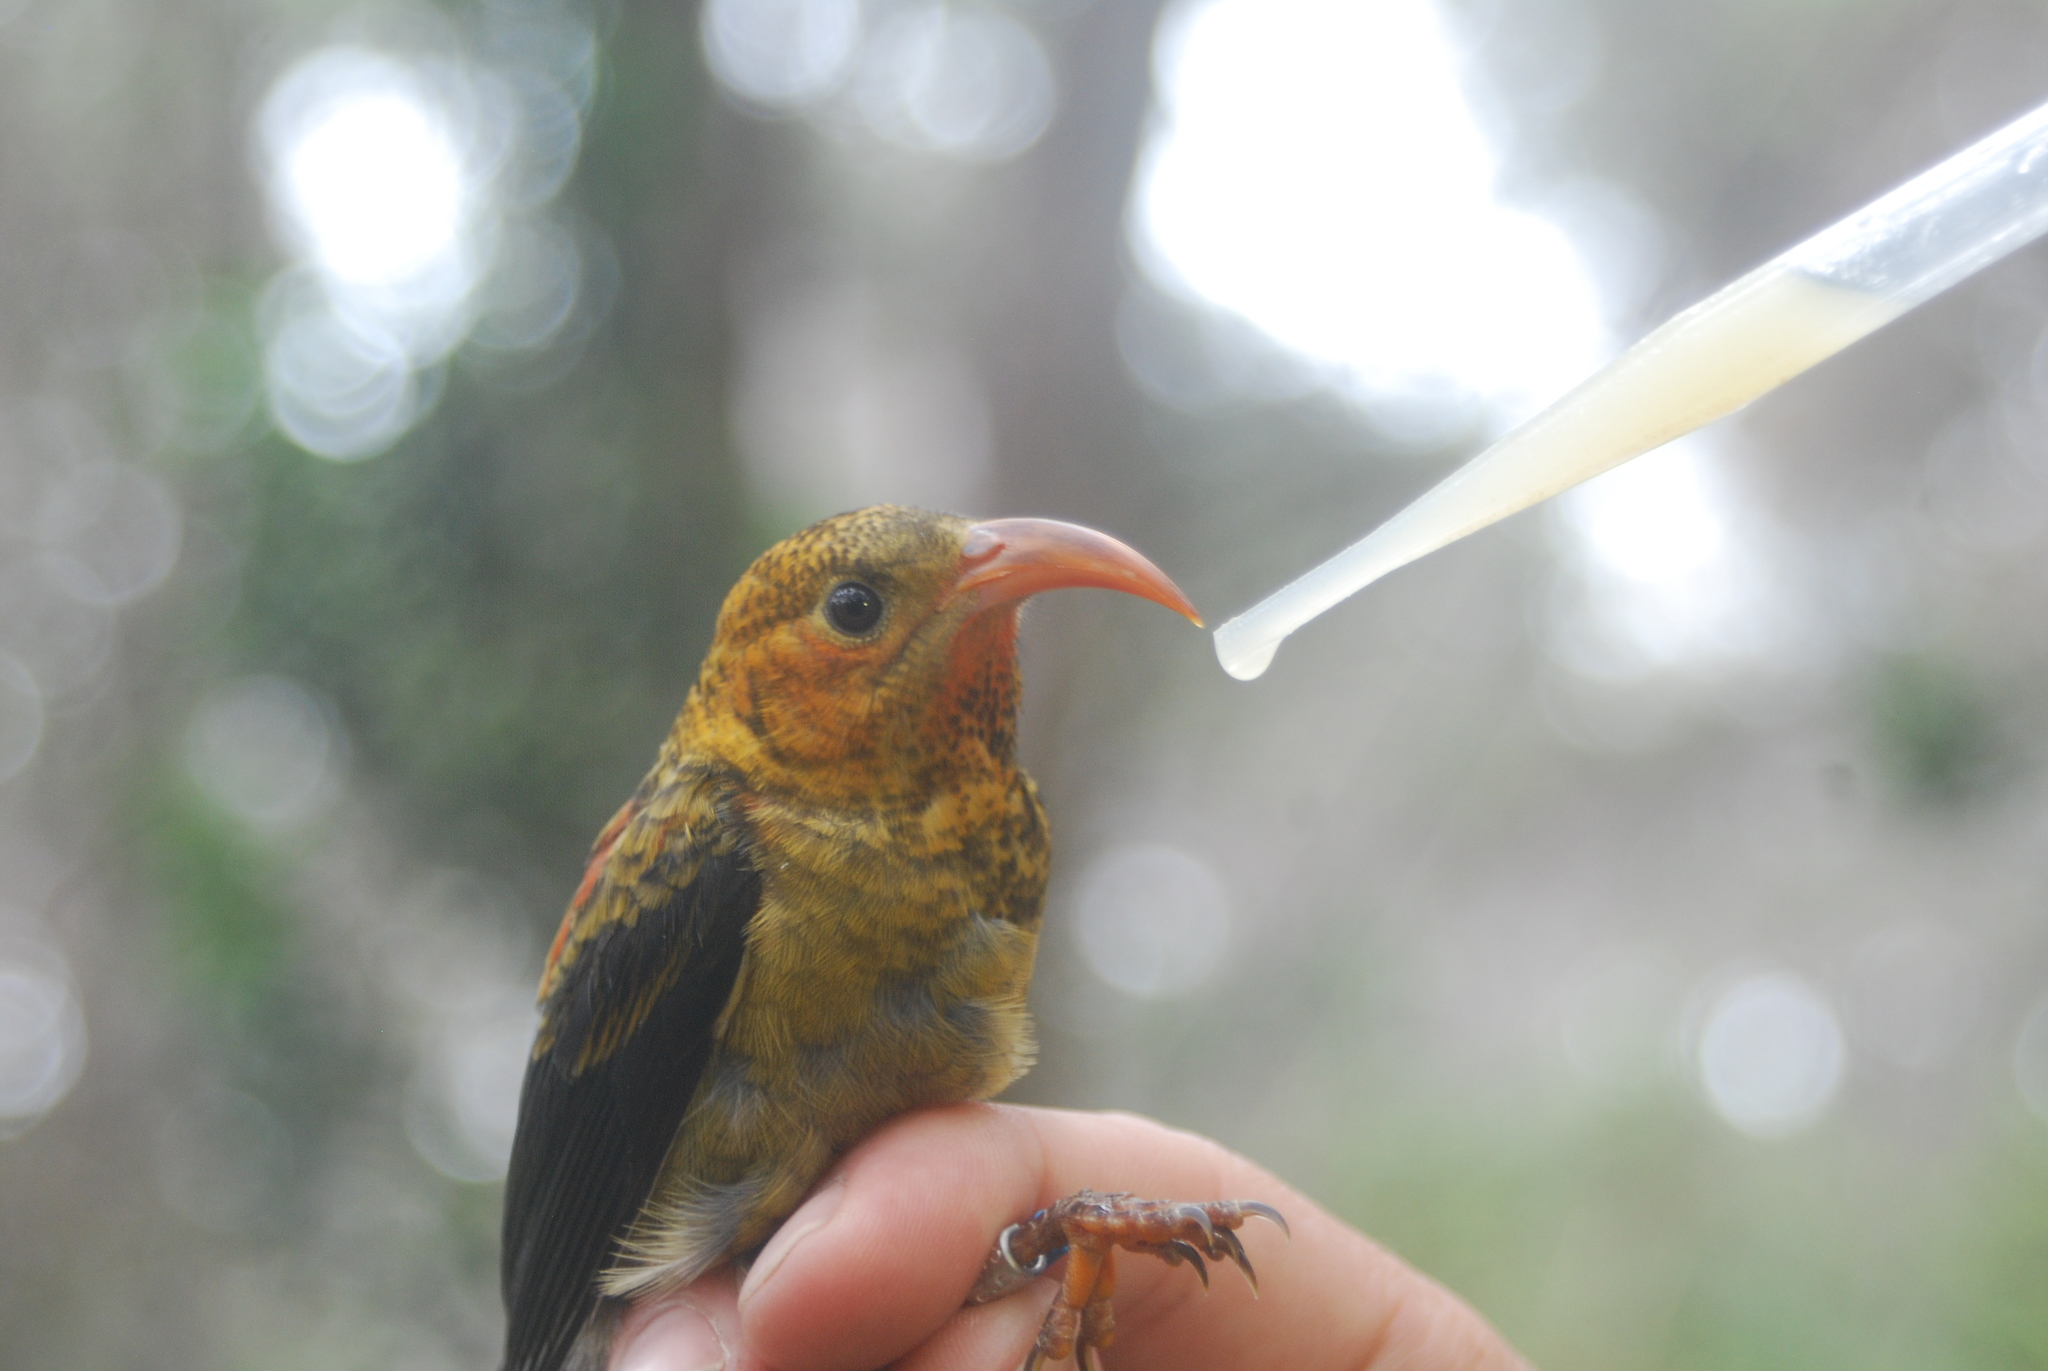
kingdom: Animalia
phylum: Chordata
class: Aves
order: Passeriformes
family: Fringillidae
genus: Vestiaria
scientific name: Vestiaria coccinea
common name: Iiwi
